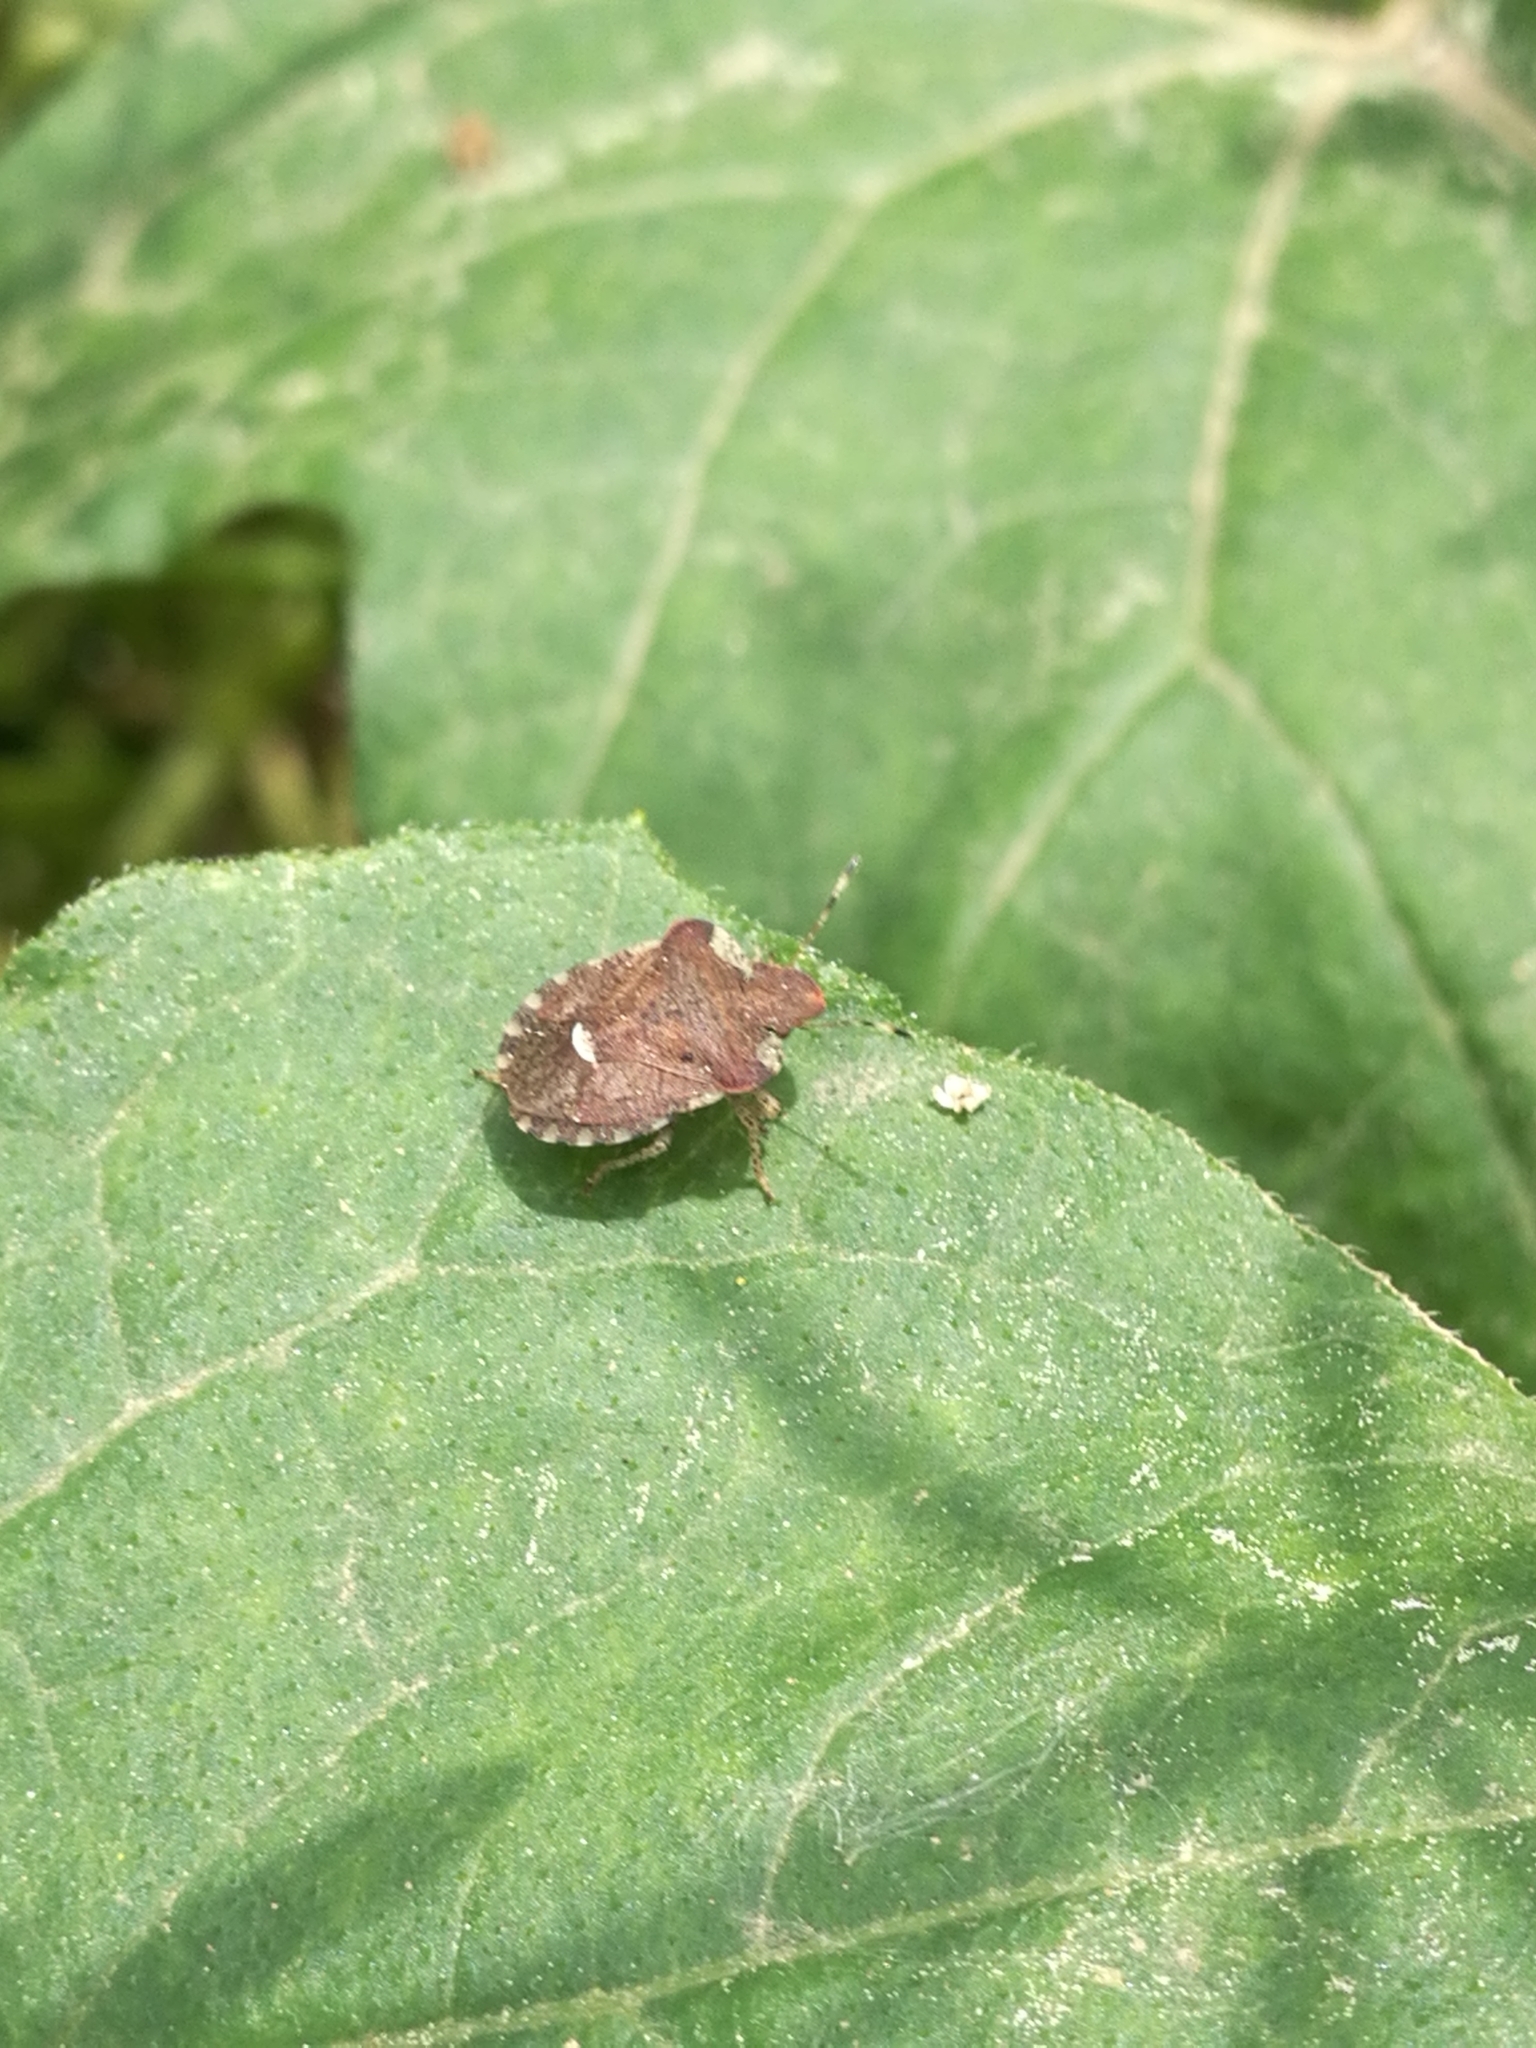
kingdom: Animalia
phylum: Arthropoda
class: Insecta
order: Hemiptera
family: Pentatomidae
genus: Dyroderes
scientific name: Dyroderes umbraculatus
